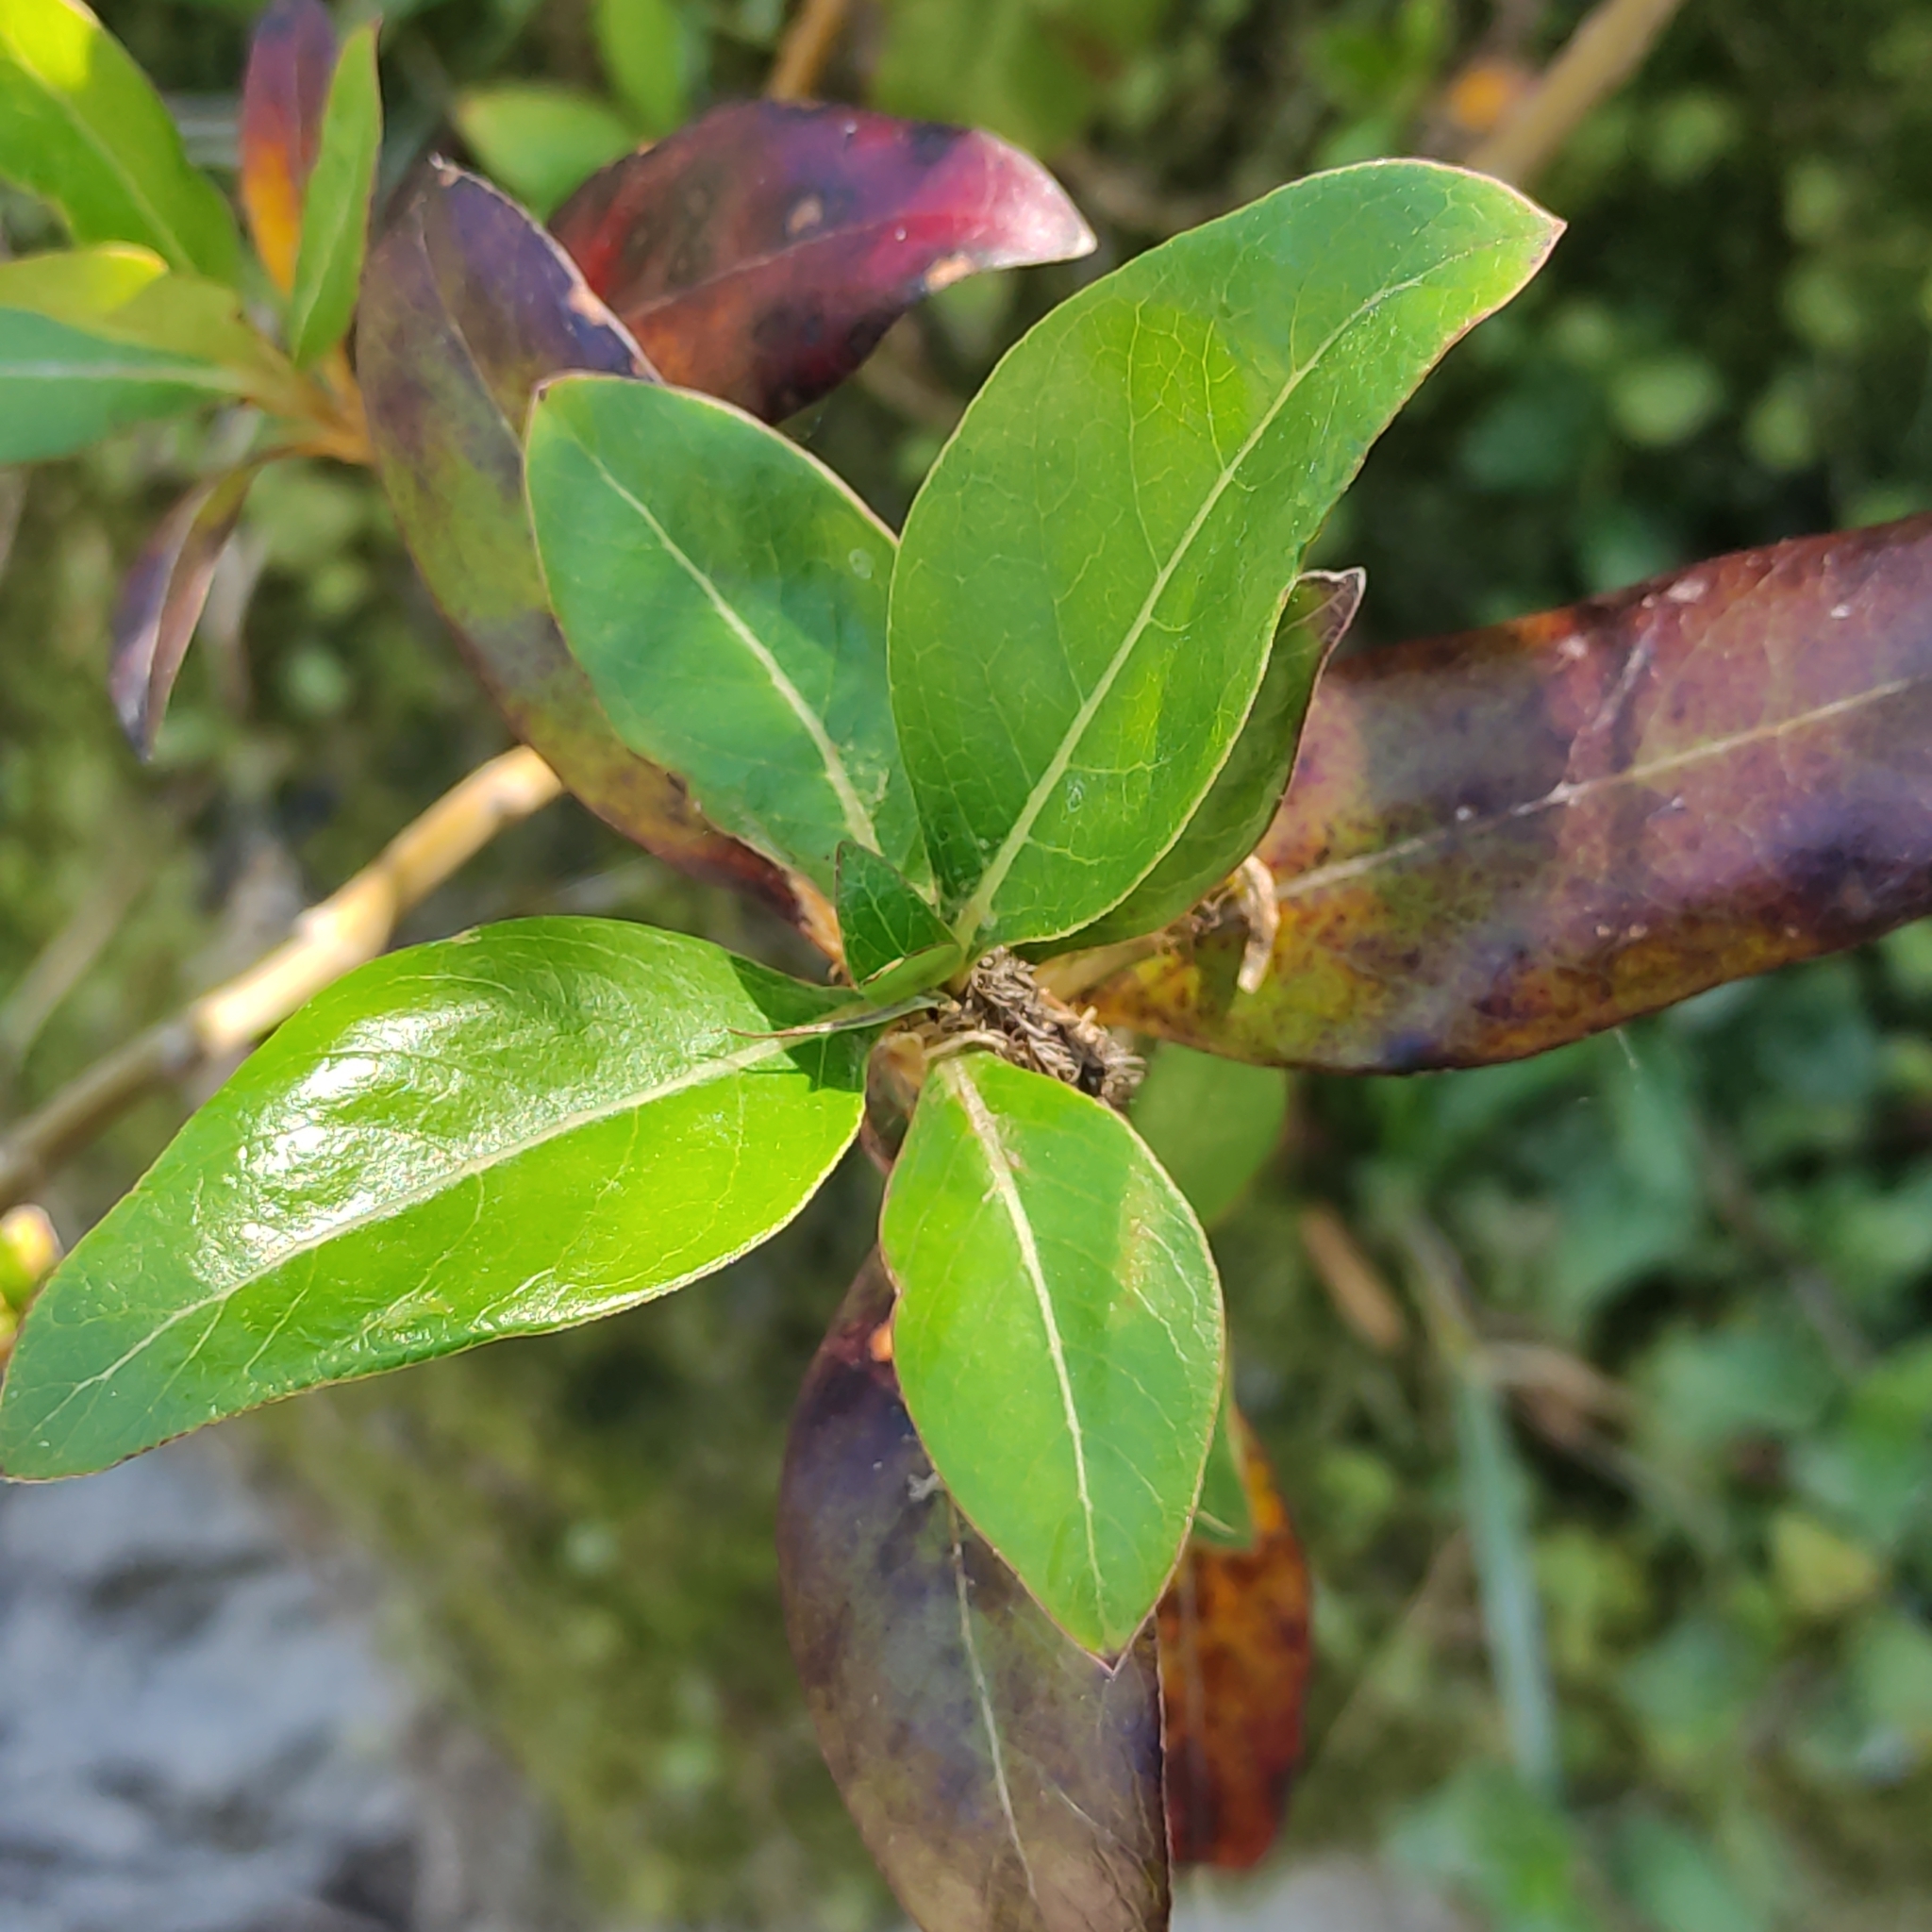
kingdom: Plantae
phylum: Tracheophyta
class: Magnoliopsida
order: Gentianales
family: Rubiaceae
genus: Coprosma
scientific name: Coprosma robusta
